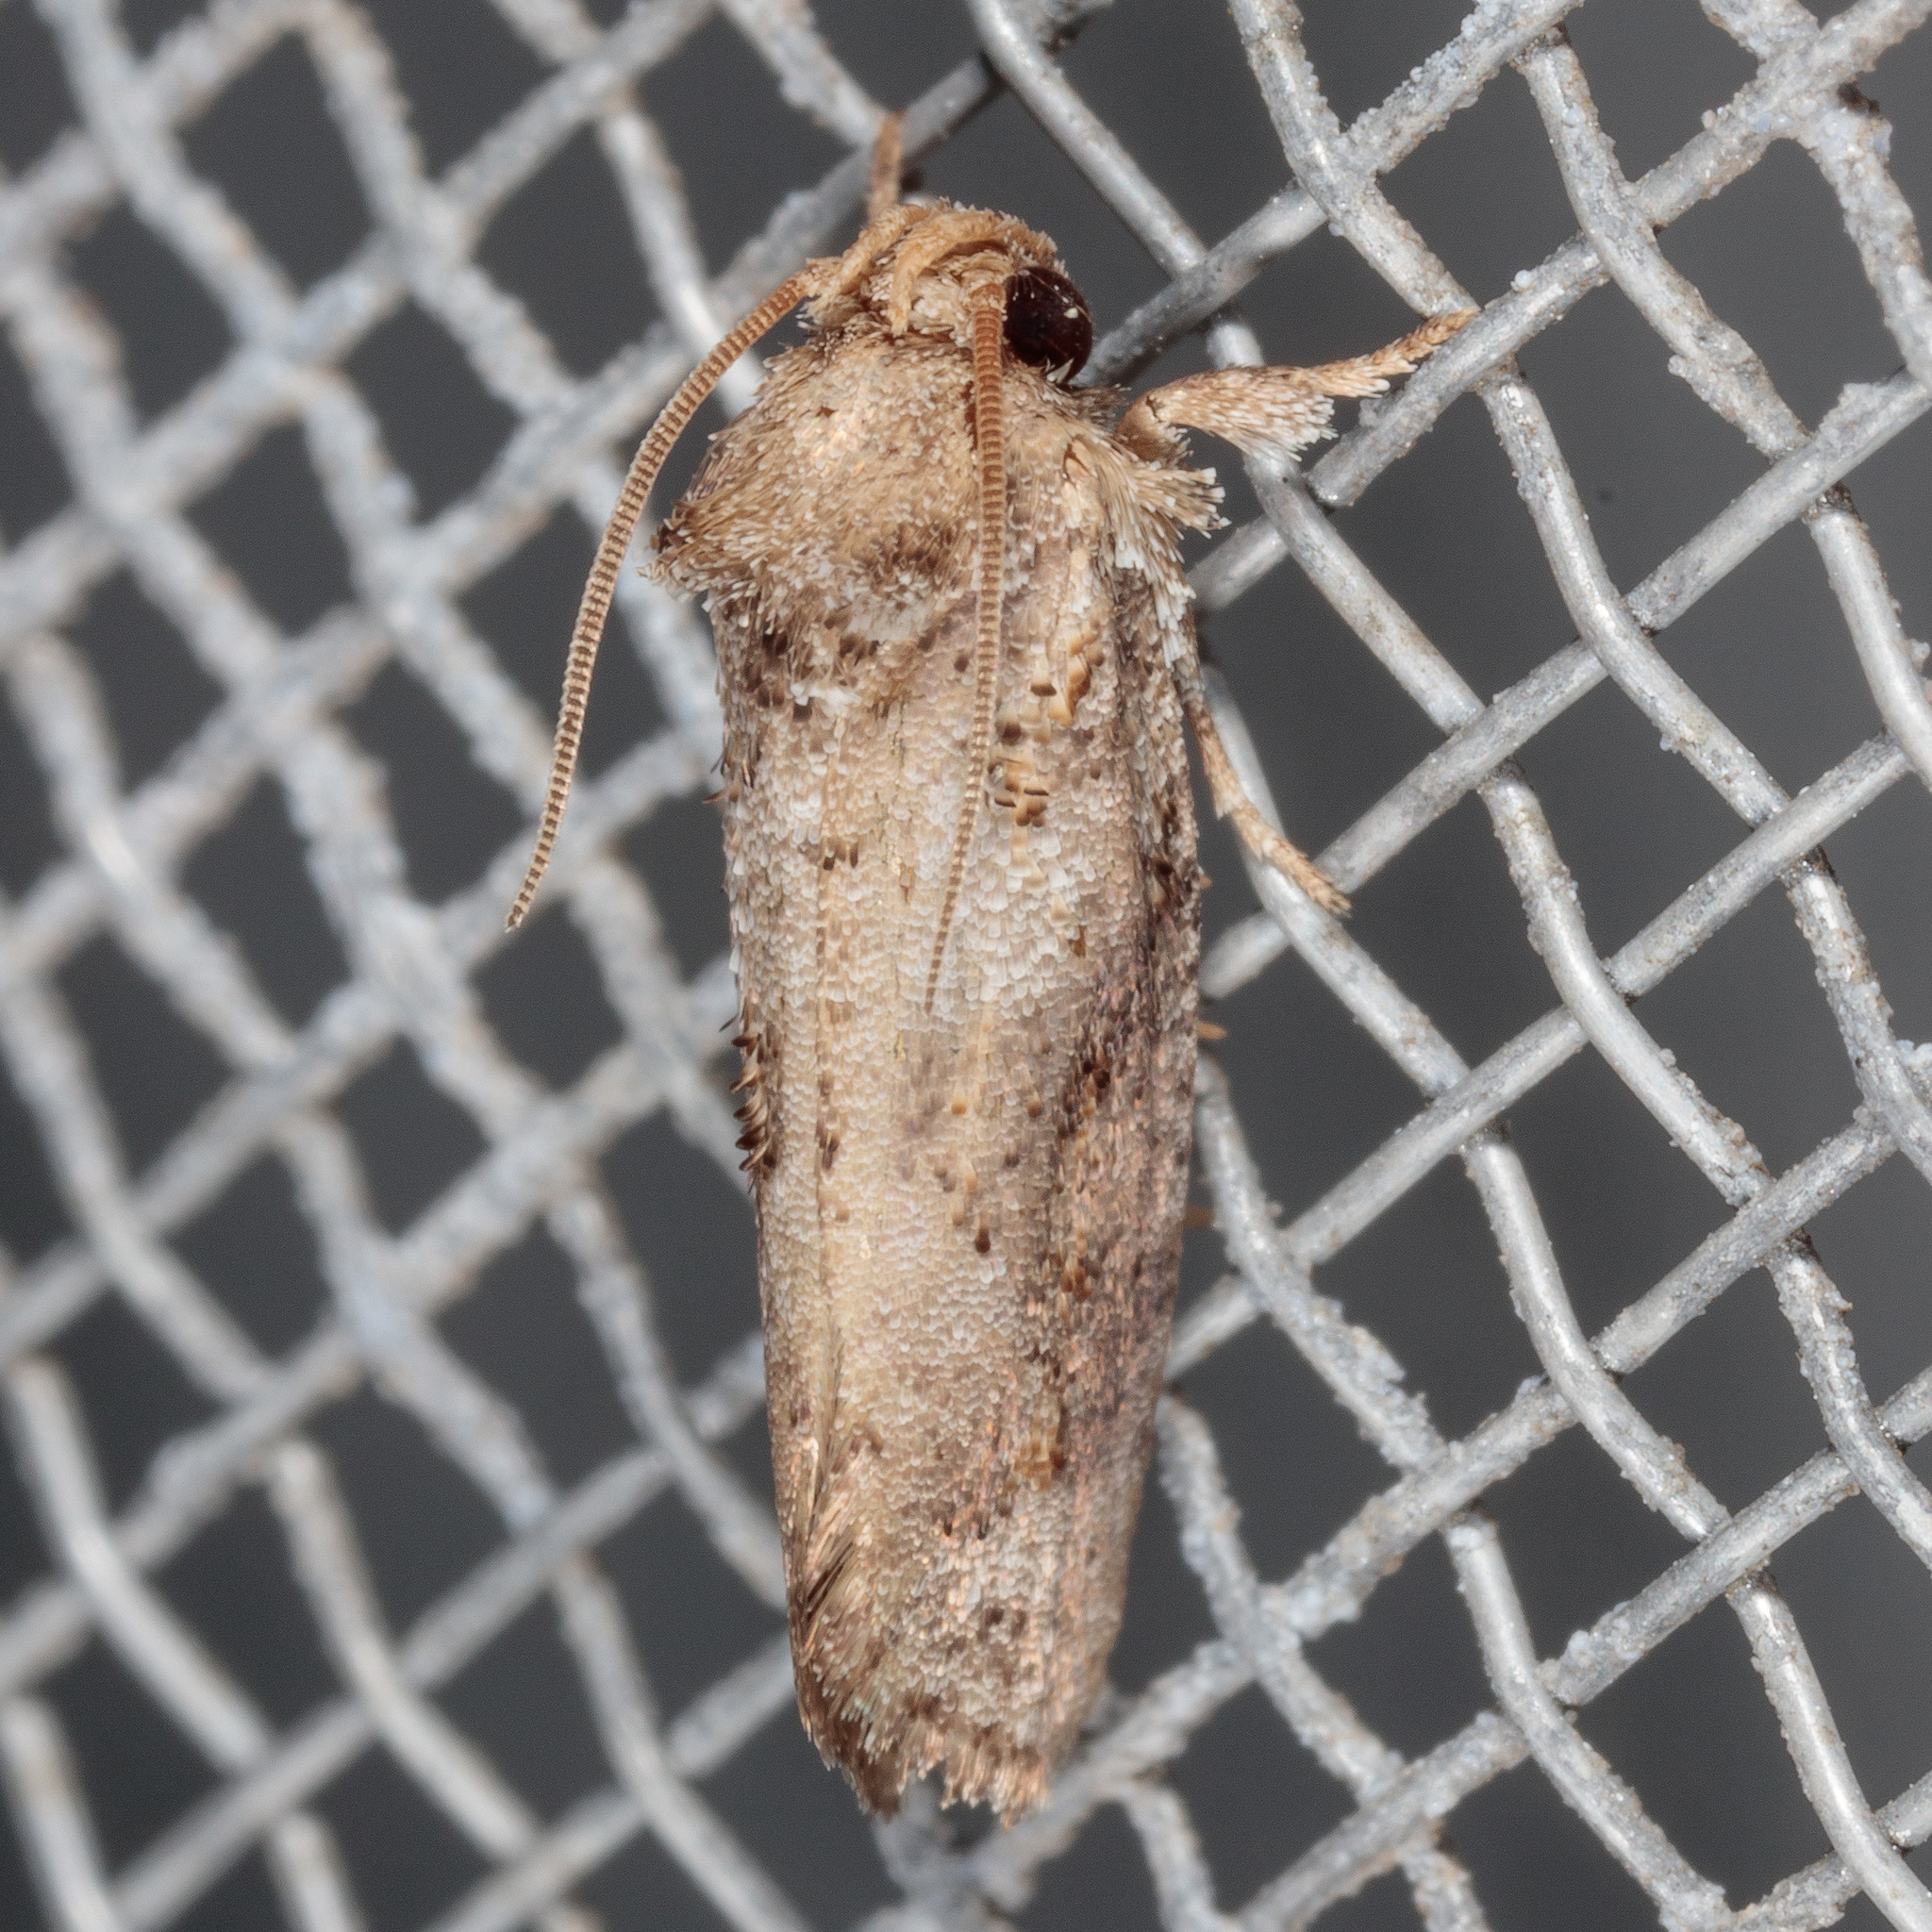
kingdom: Animalia
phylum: Arthropoda
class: Insecta
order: Lepidoptera
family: Tineidae
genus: Acrolophus
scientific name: Acrolophus piger
